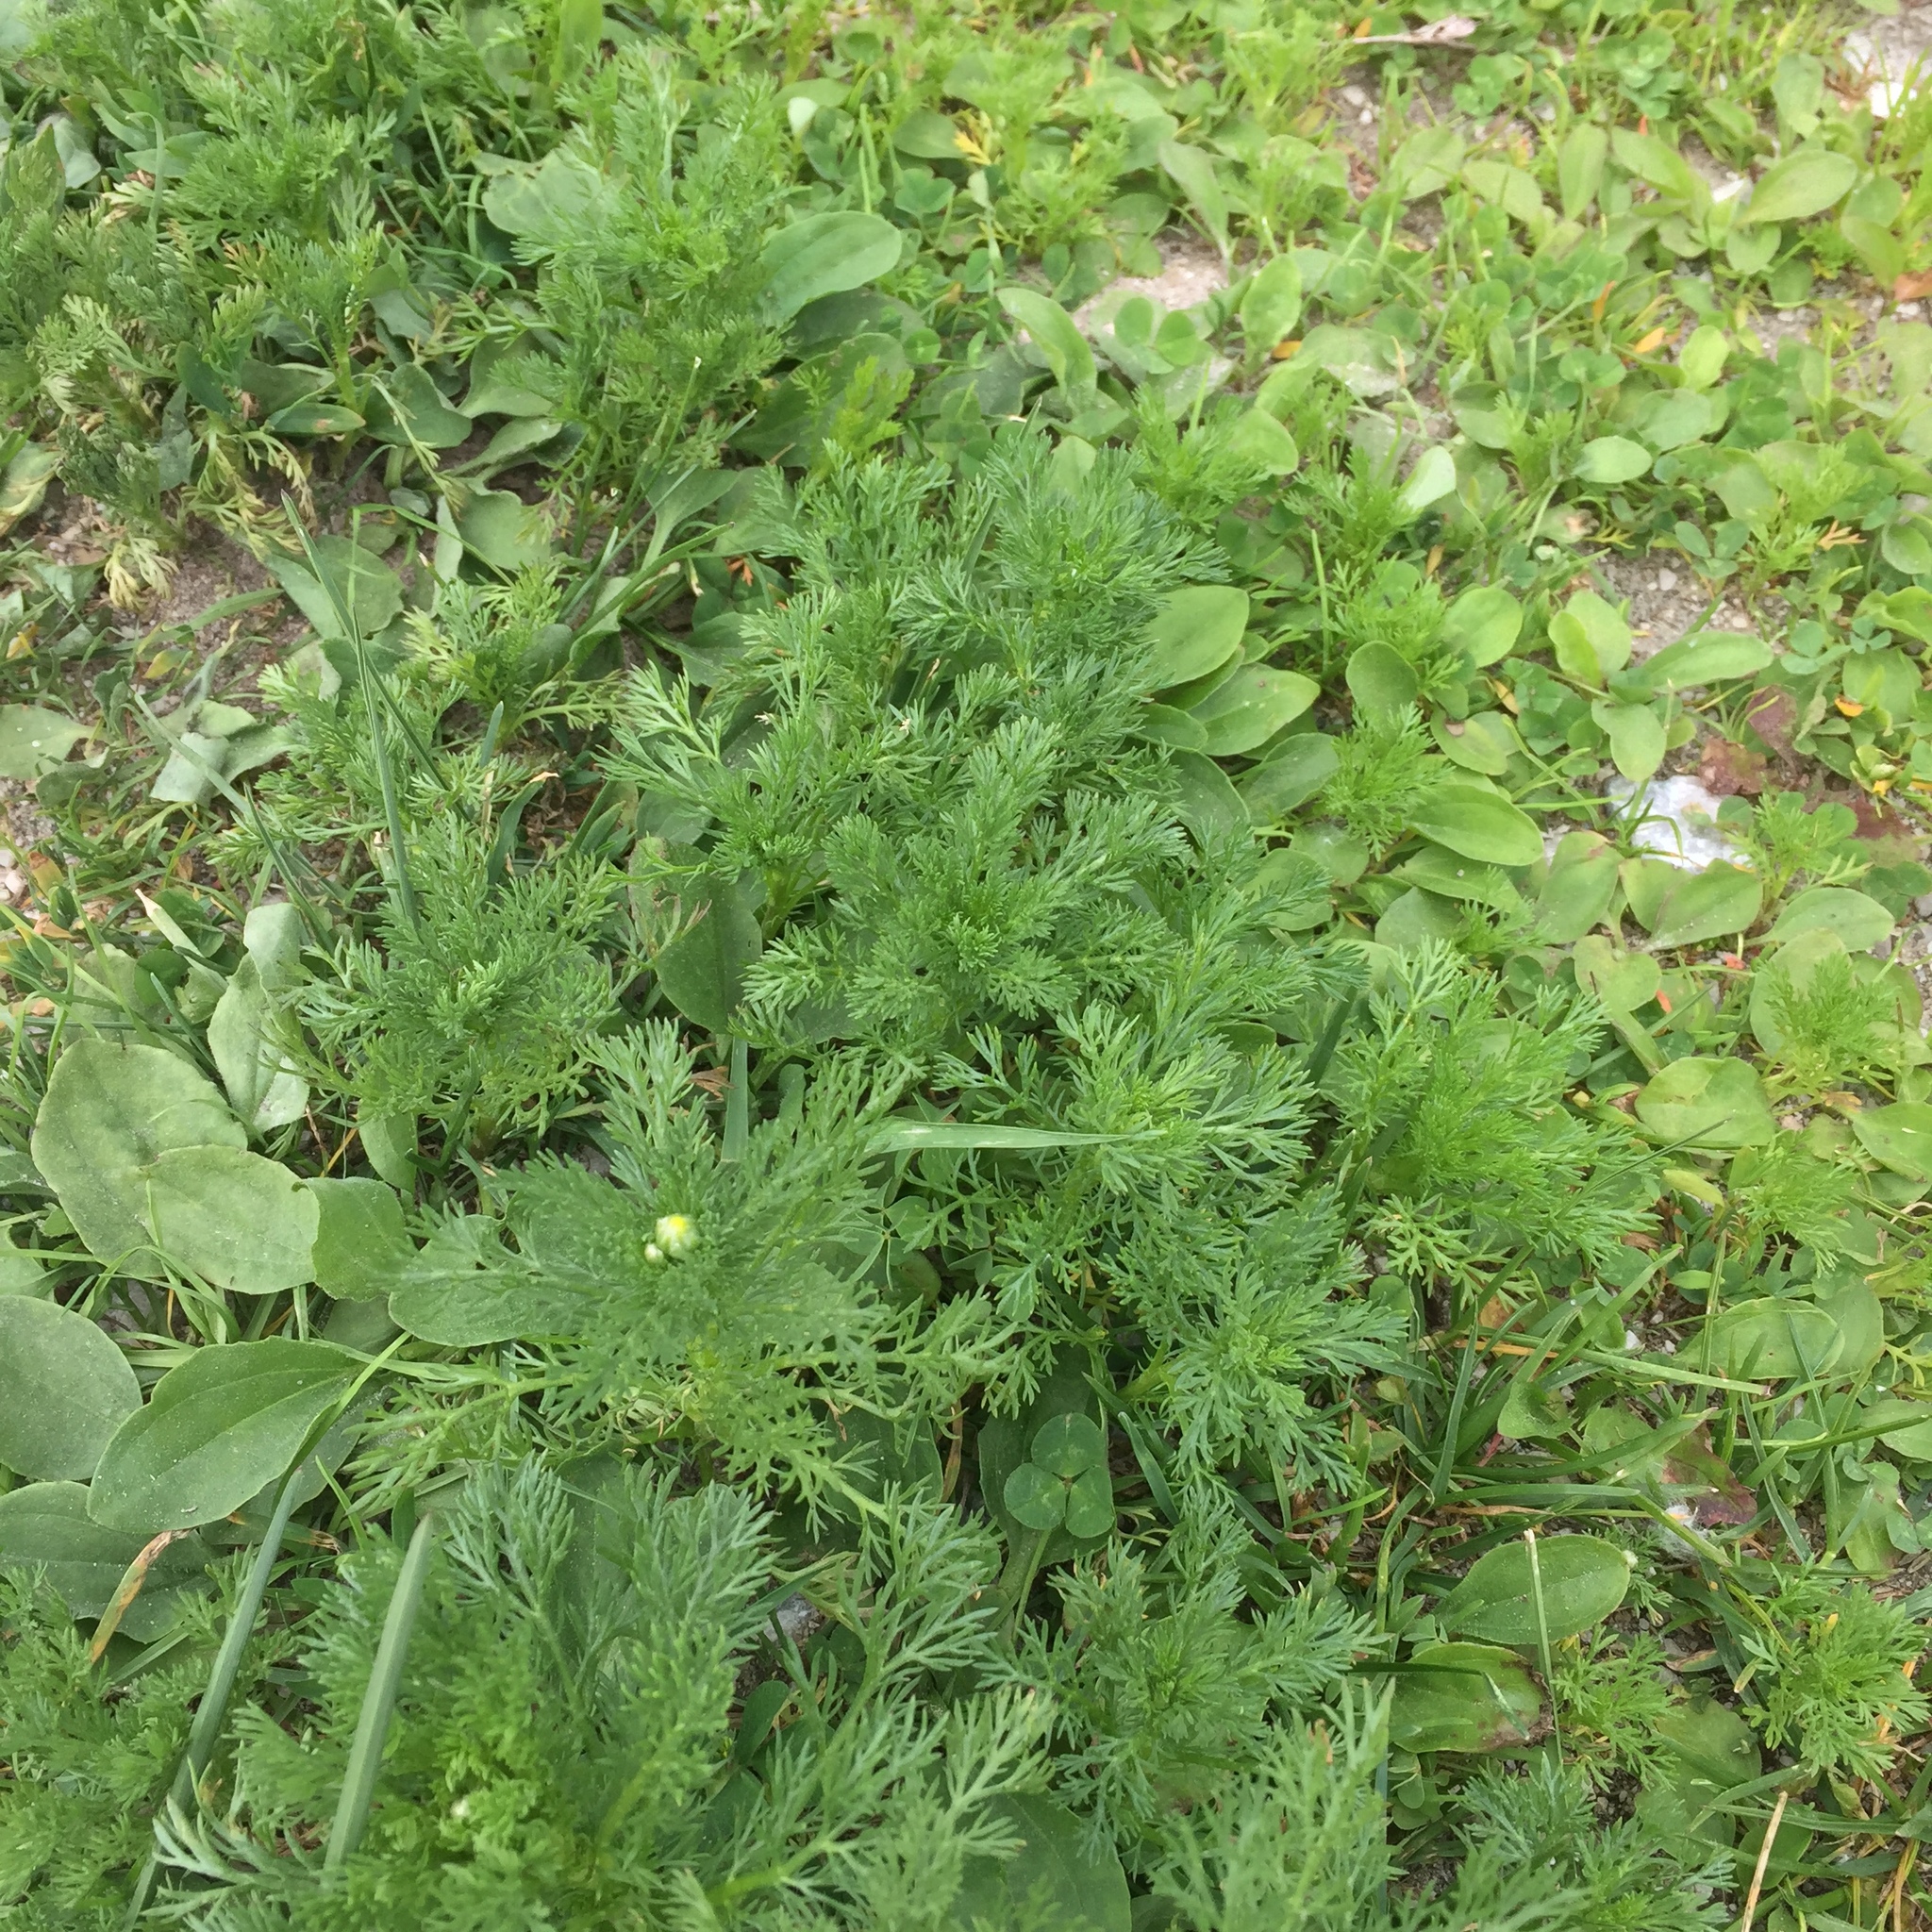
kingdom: Plantae
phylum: Tracheophyta
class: Magnoliopsida
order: Asterales
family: Asteraceae
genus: Matricaria
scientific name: Matricaria discoidea
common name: Disc mayweed
